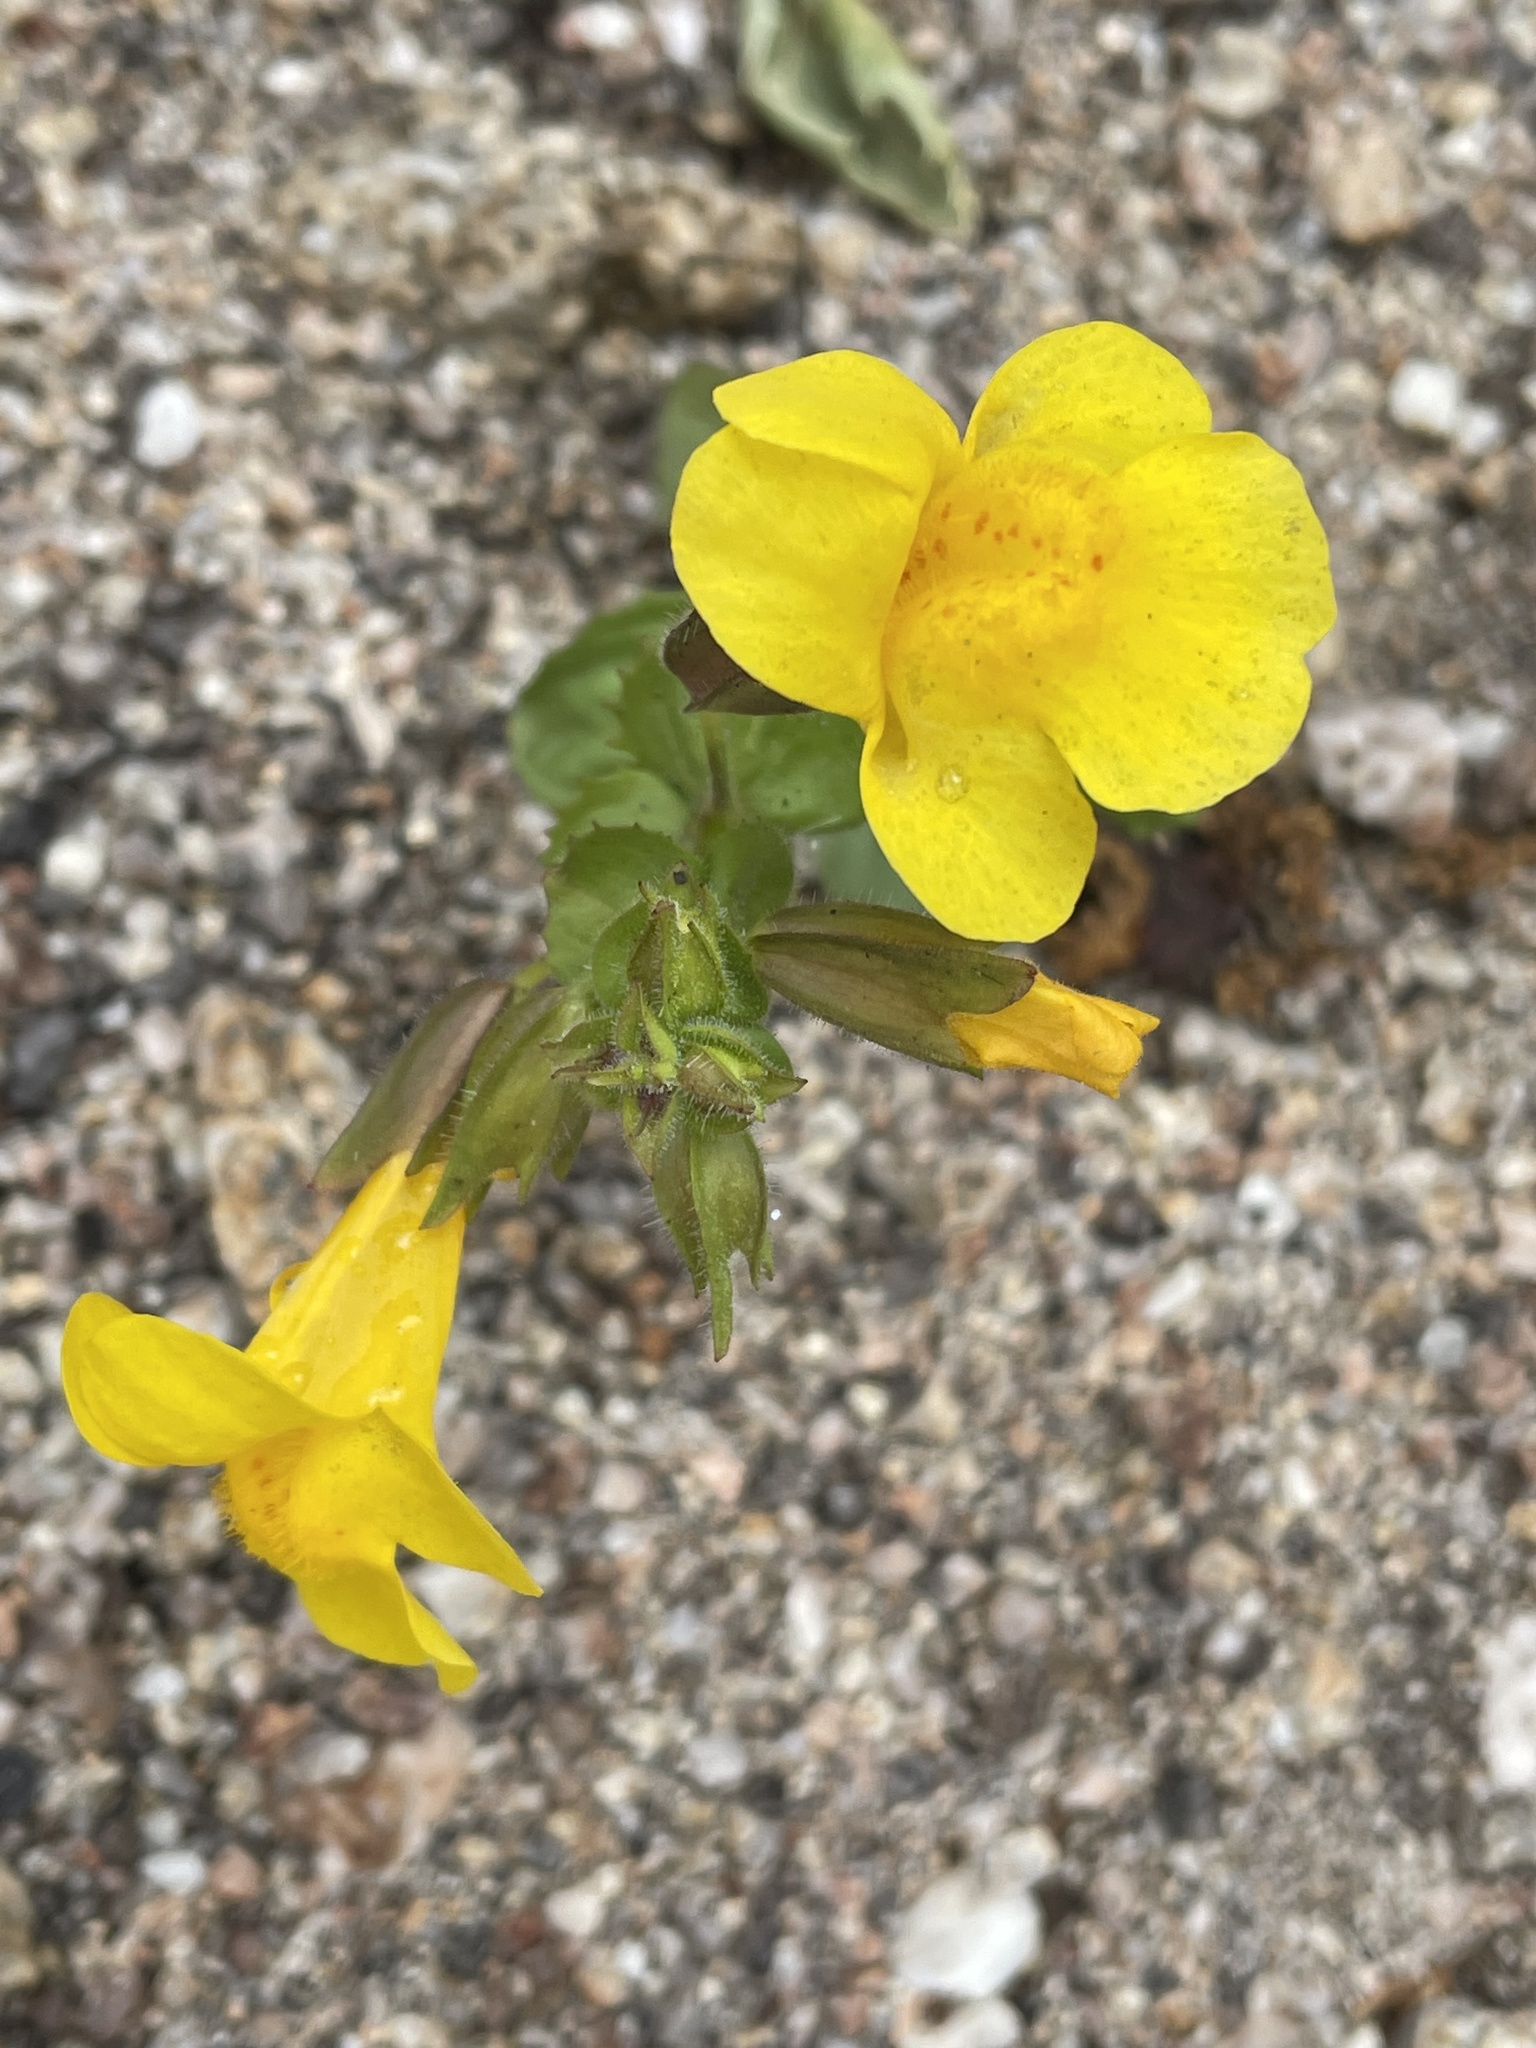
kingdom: Plantae
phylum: Tracheophyta
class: Magnoliopsida
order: Lamiales
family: Phrymaceae
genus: Erythranthe
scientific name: Erythranthe guttata
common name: Monkeyflower
